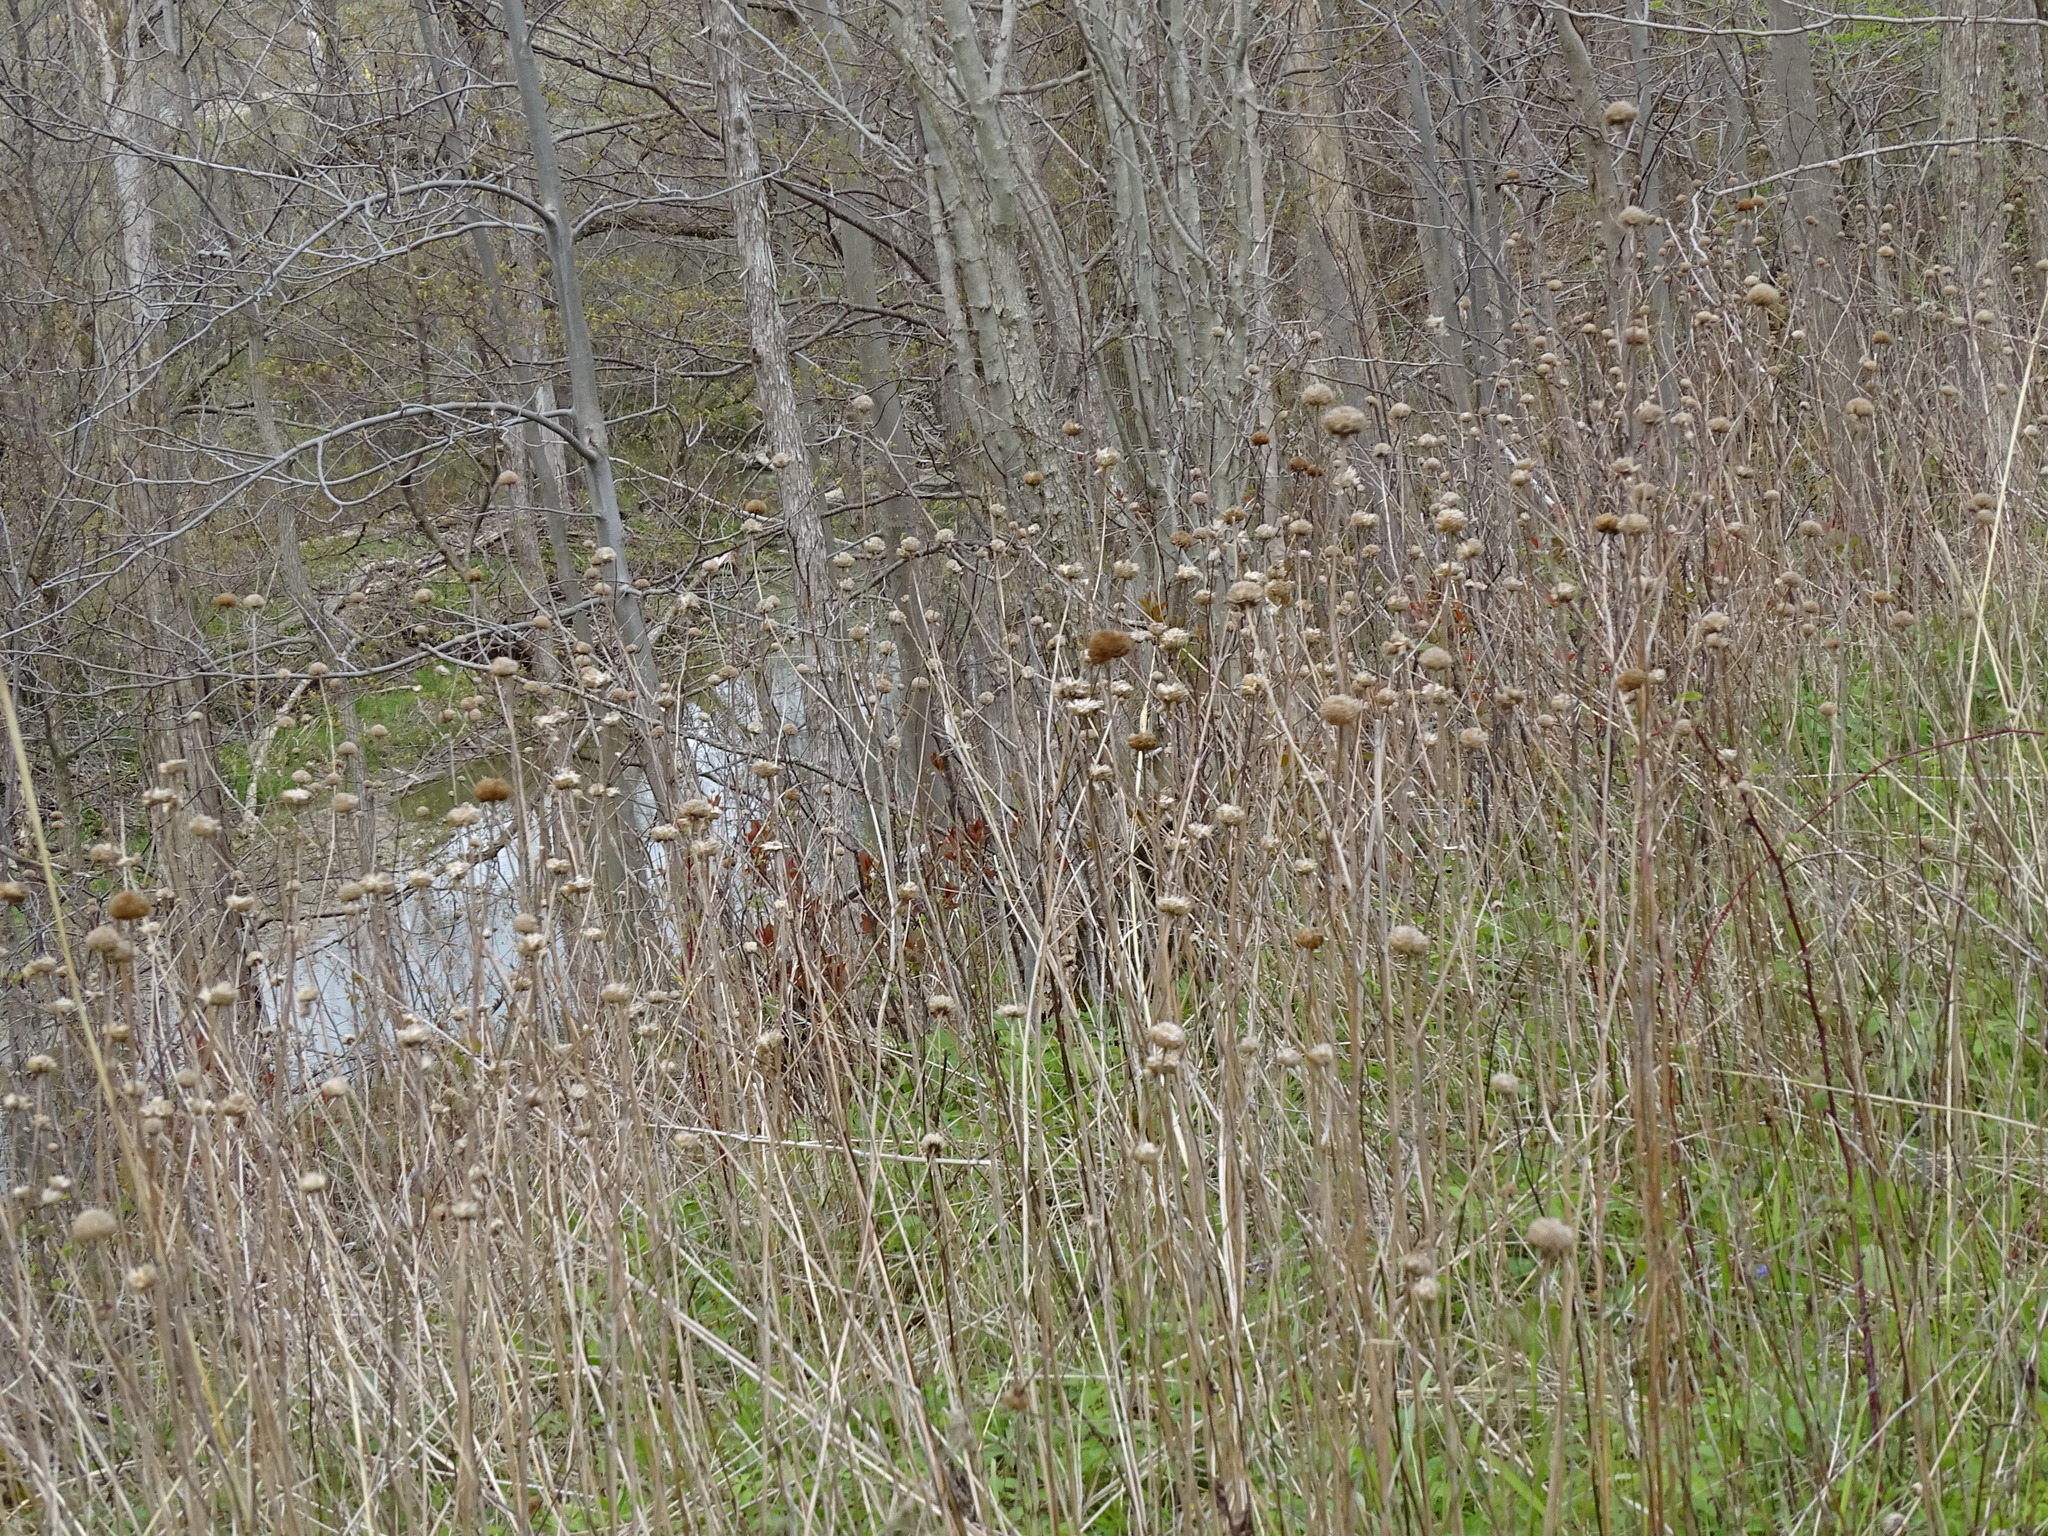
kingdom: Plantae
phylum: Tracheophyta
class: Magnoliopsida
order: Lamiales
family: Lamiaceae
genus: Monarda
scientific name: Monarda fistulosa
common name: Purple beebalm
